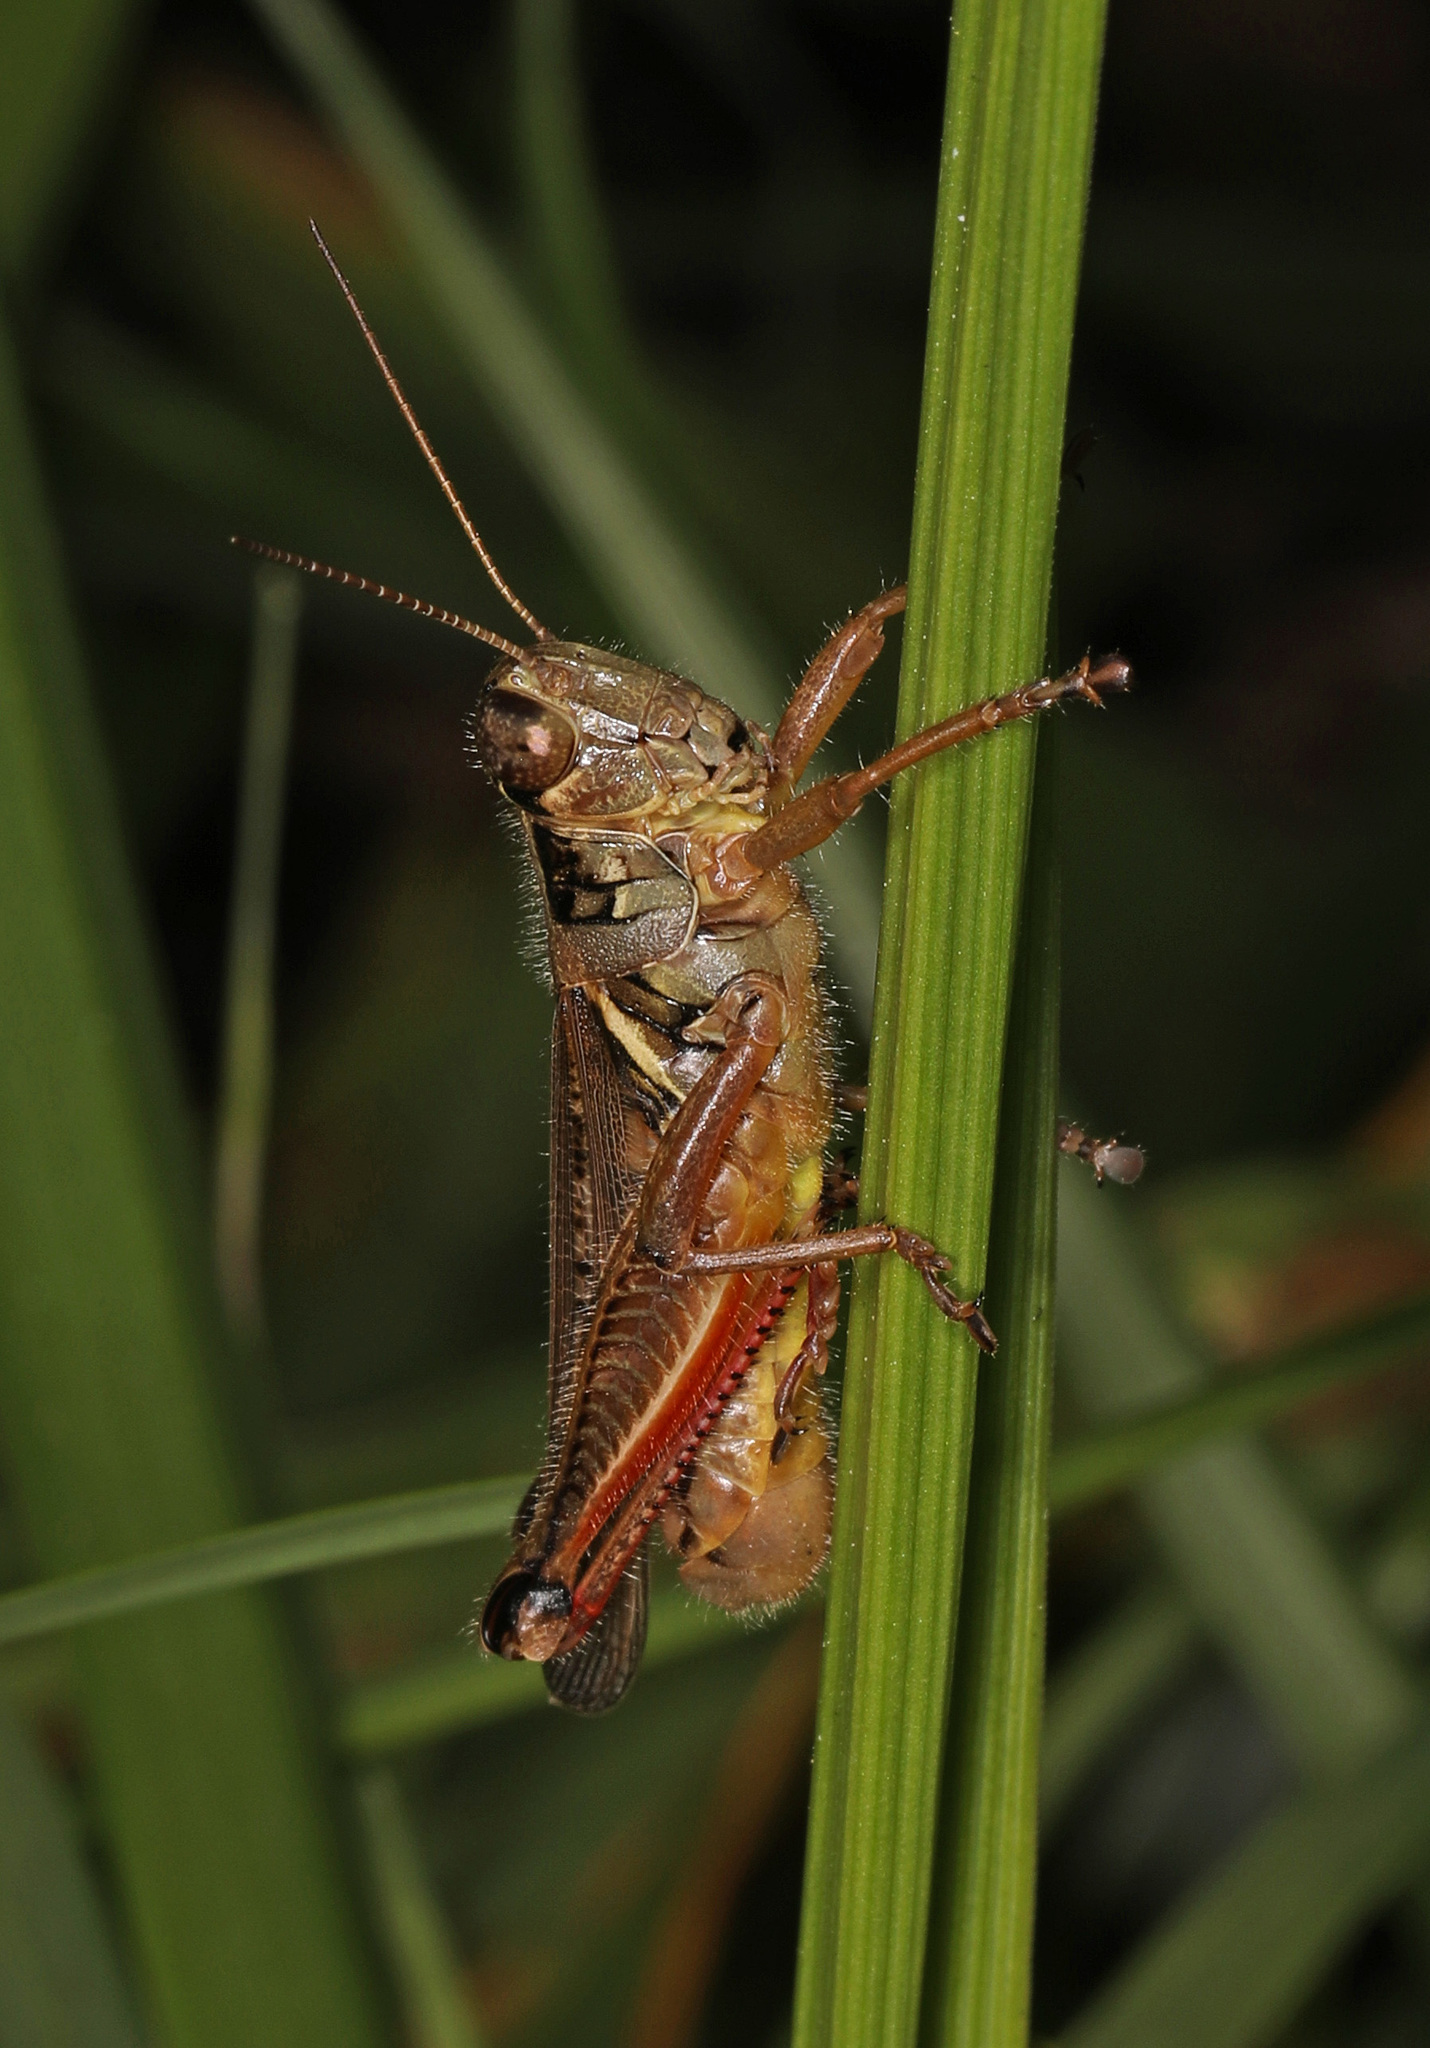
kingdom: Animalia
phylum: Arthropoda
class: Insecta
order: Orthoptera
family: Acrididae
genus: Melanoplus
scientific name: Melanoplus femurrubrum
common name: Red-legged grasshopper
